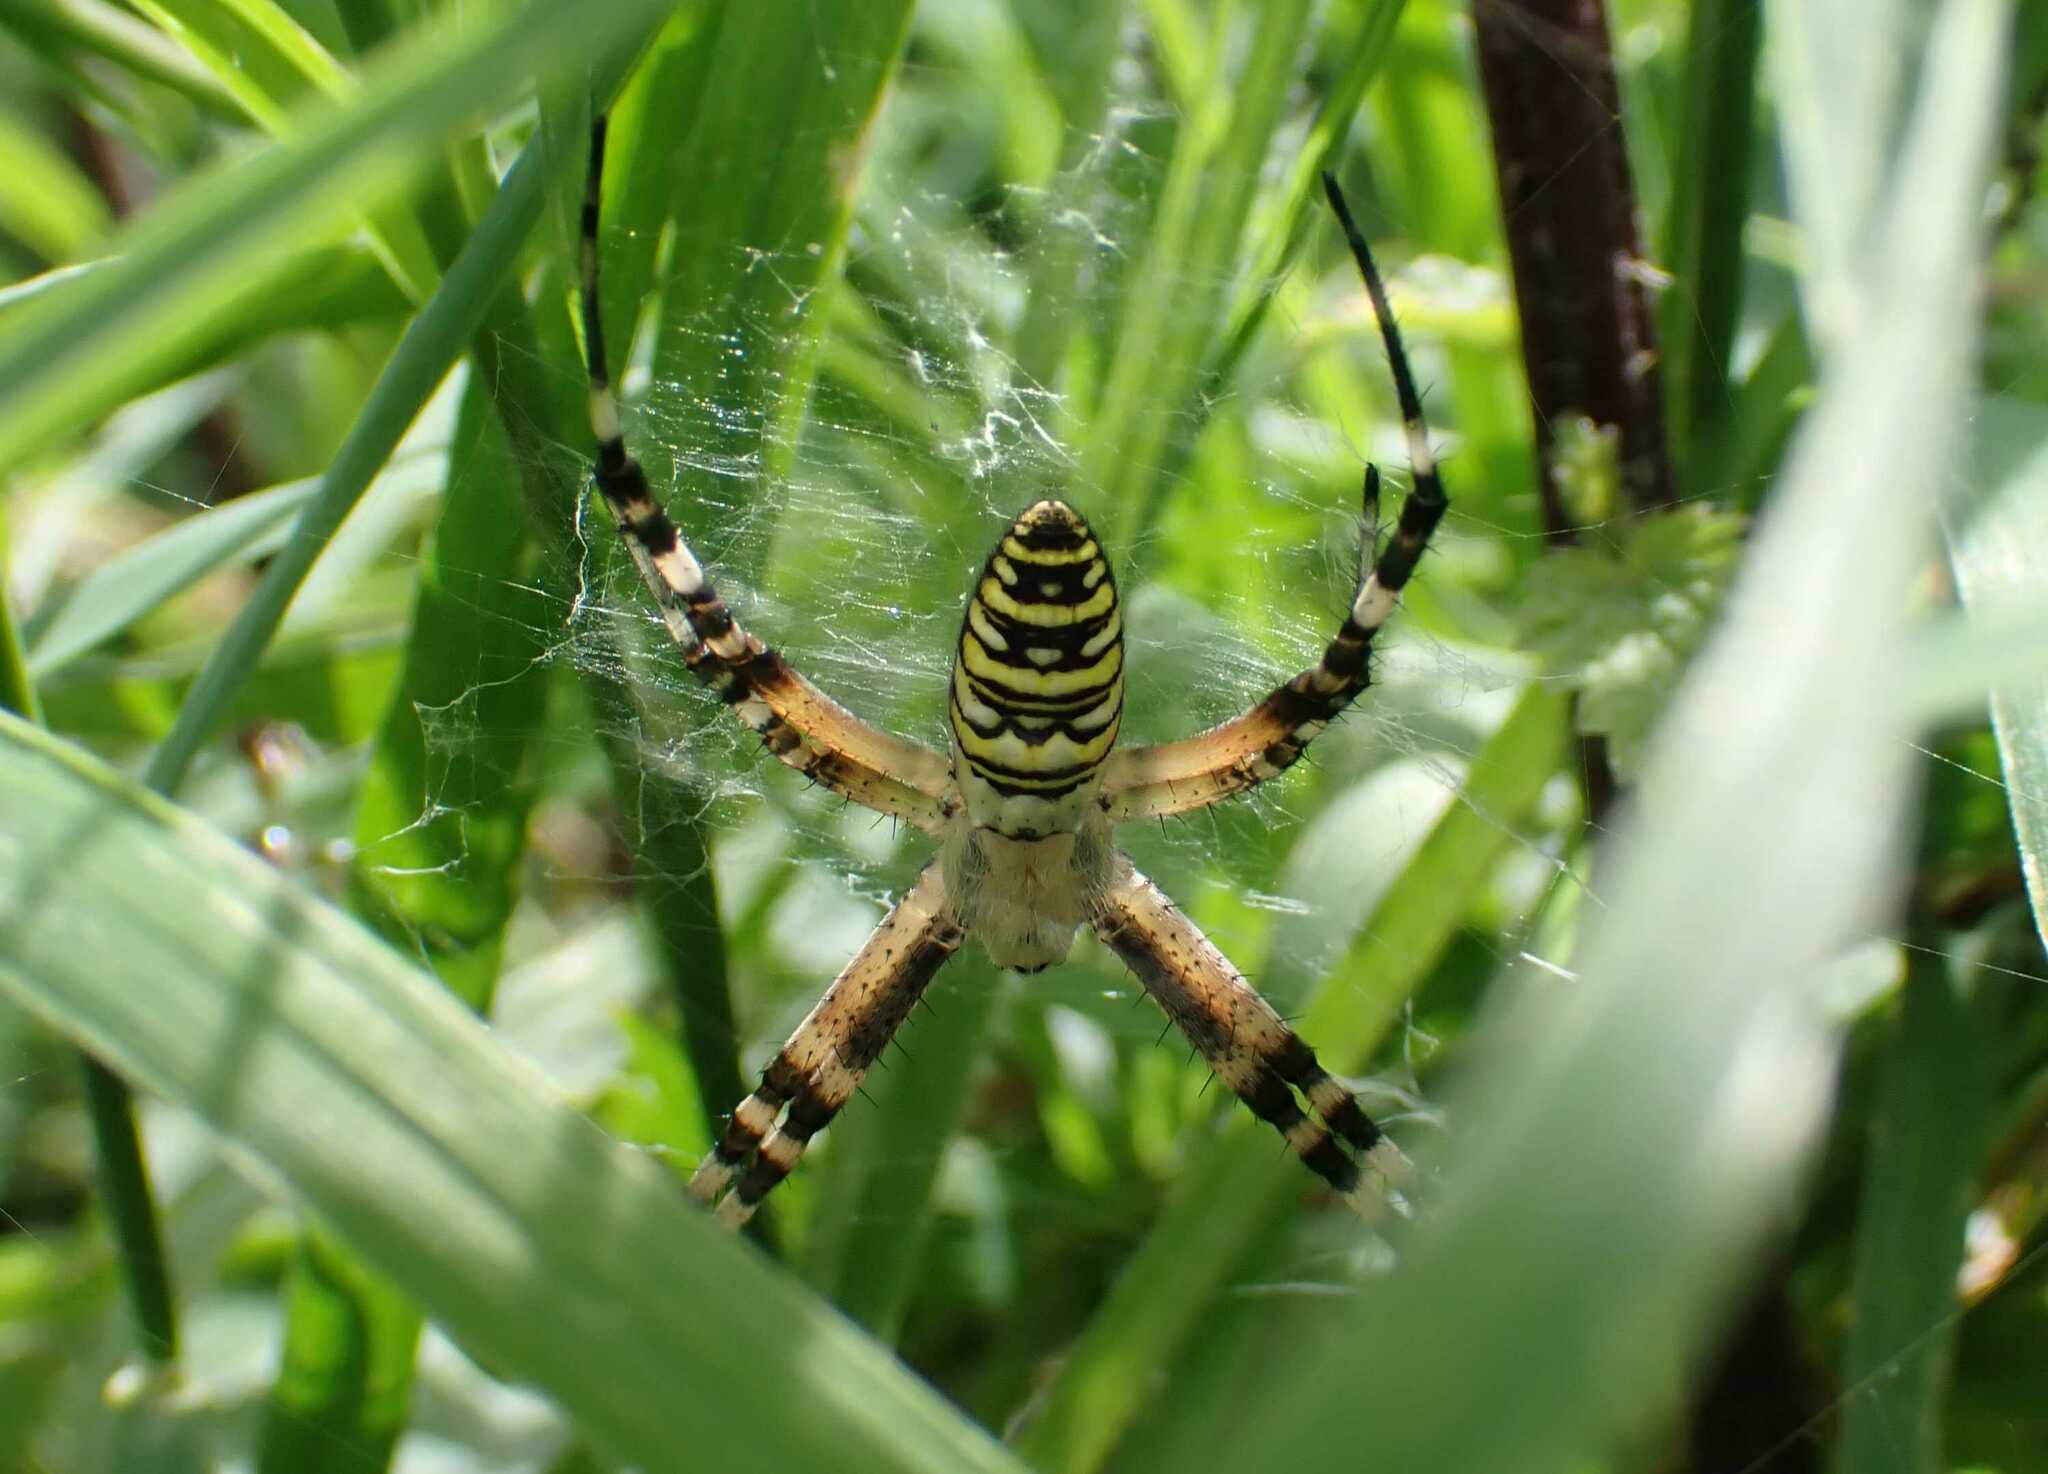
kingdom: Animalia
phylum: Arthropoda
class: Arachnida
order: Araneae
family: Araneidae
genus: Argiope
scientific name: Argiope bruennichi
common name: Wasp spider
